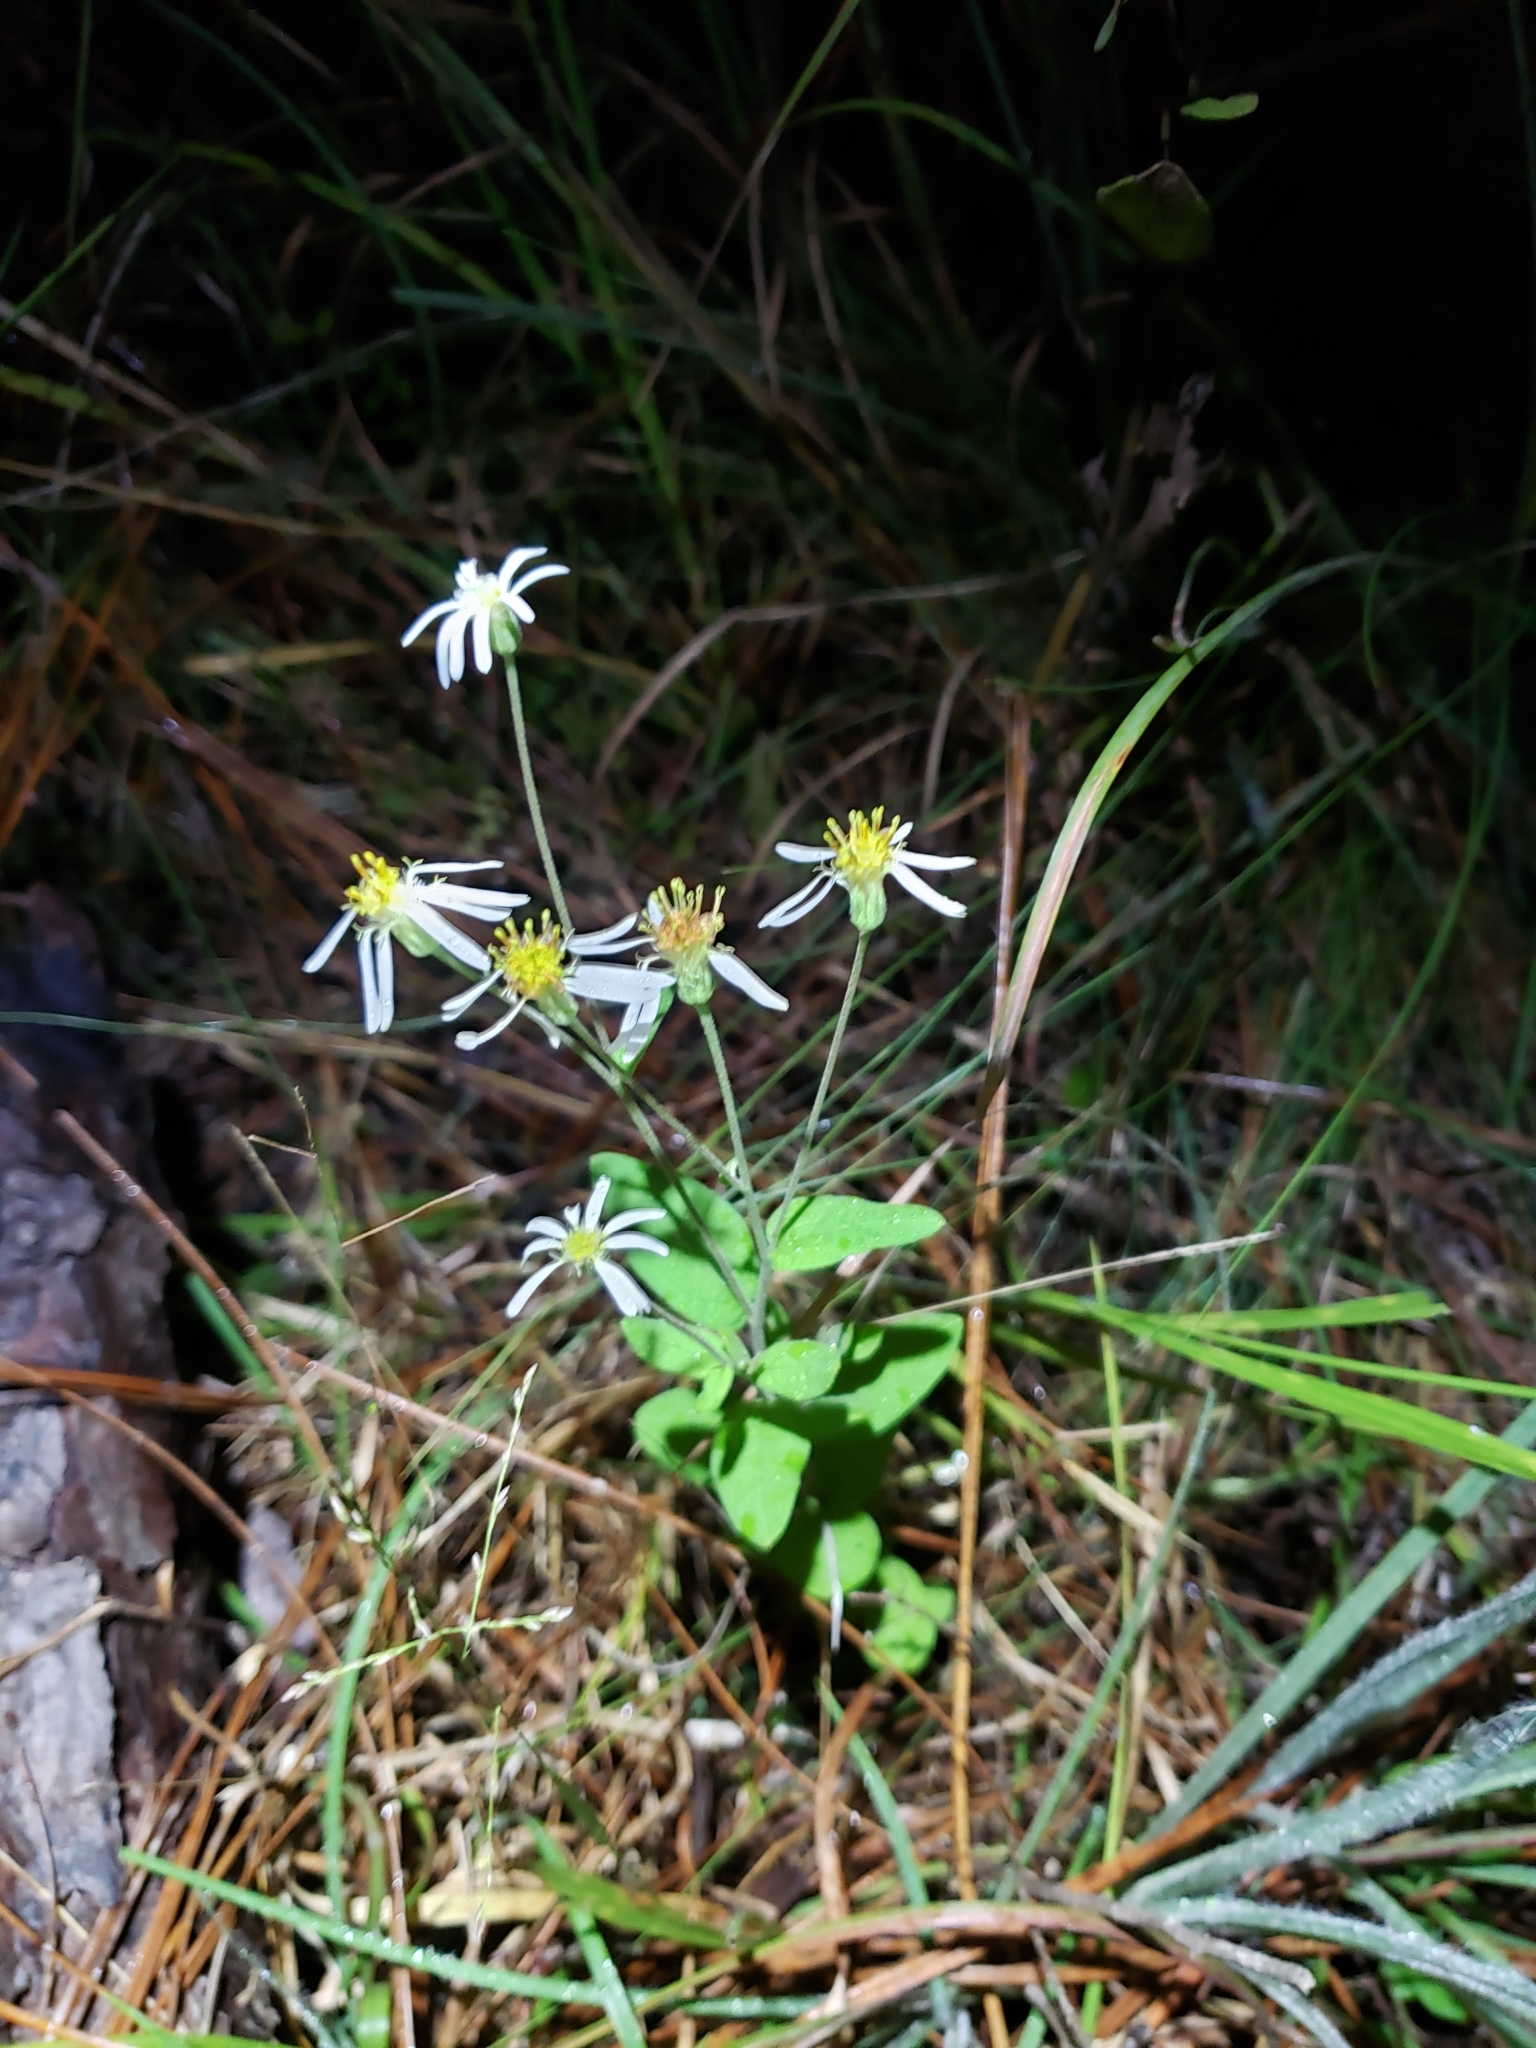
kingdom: Plantae
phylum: Tracheophyta
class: Magnoliopsida
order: Asterales
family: Asteraceae
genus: Oclemena
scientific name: Oclemena reticulata
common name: Pinebarren aster
